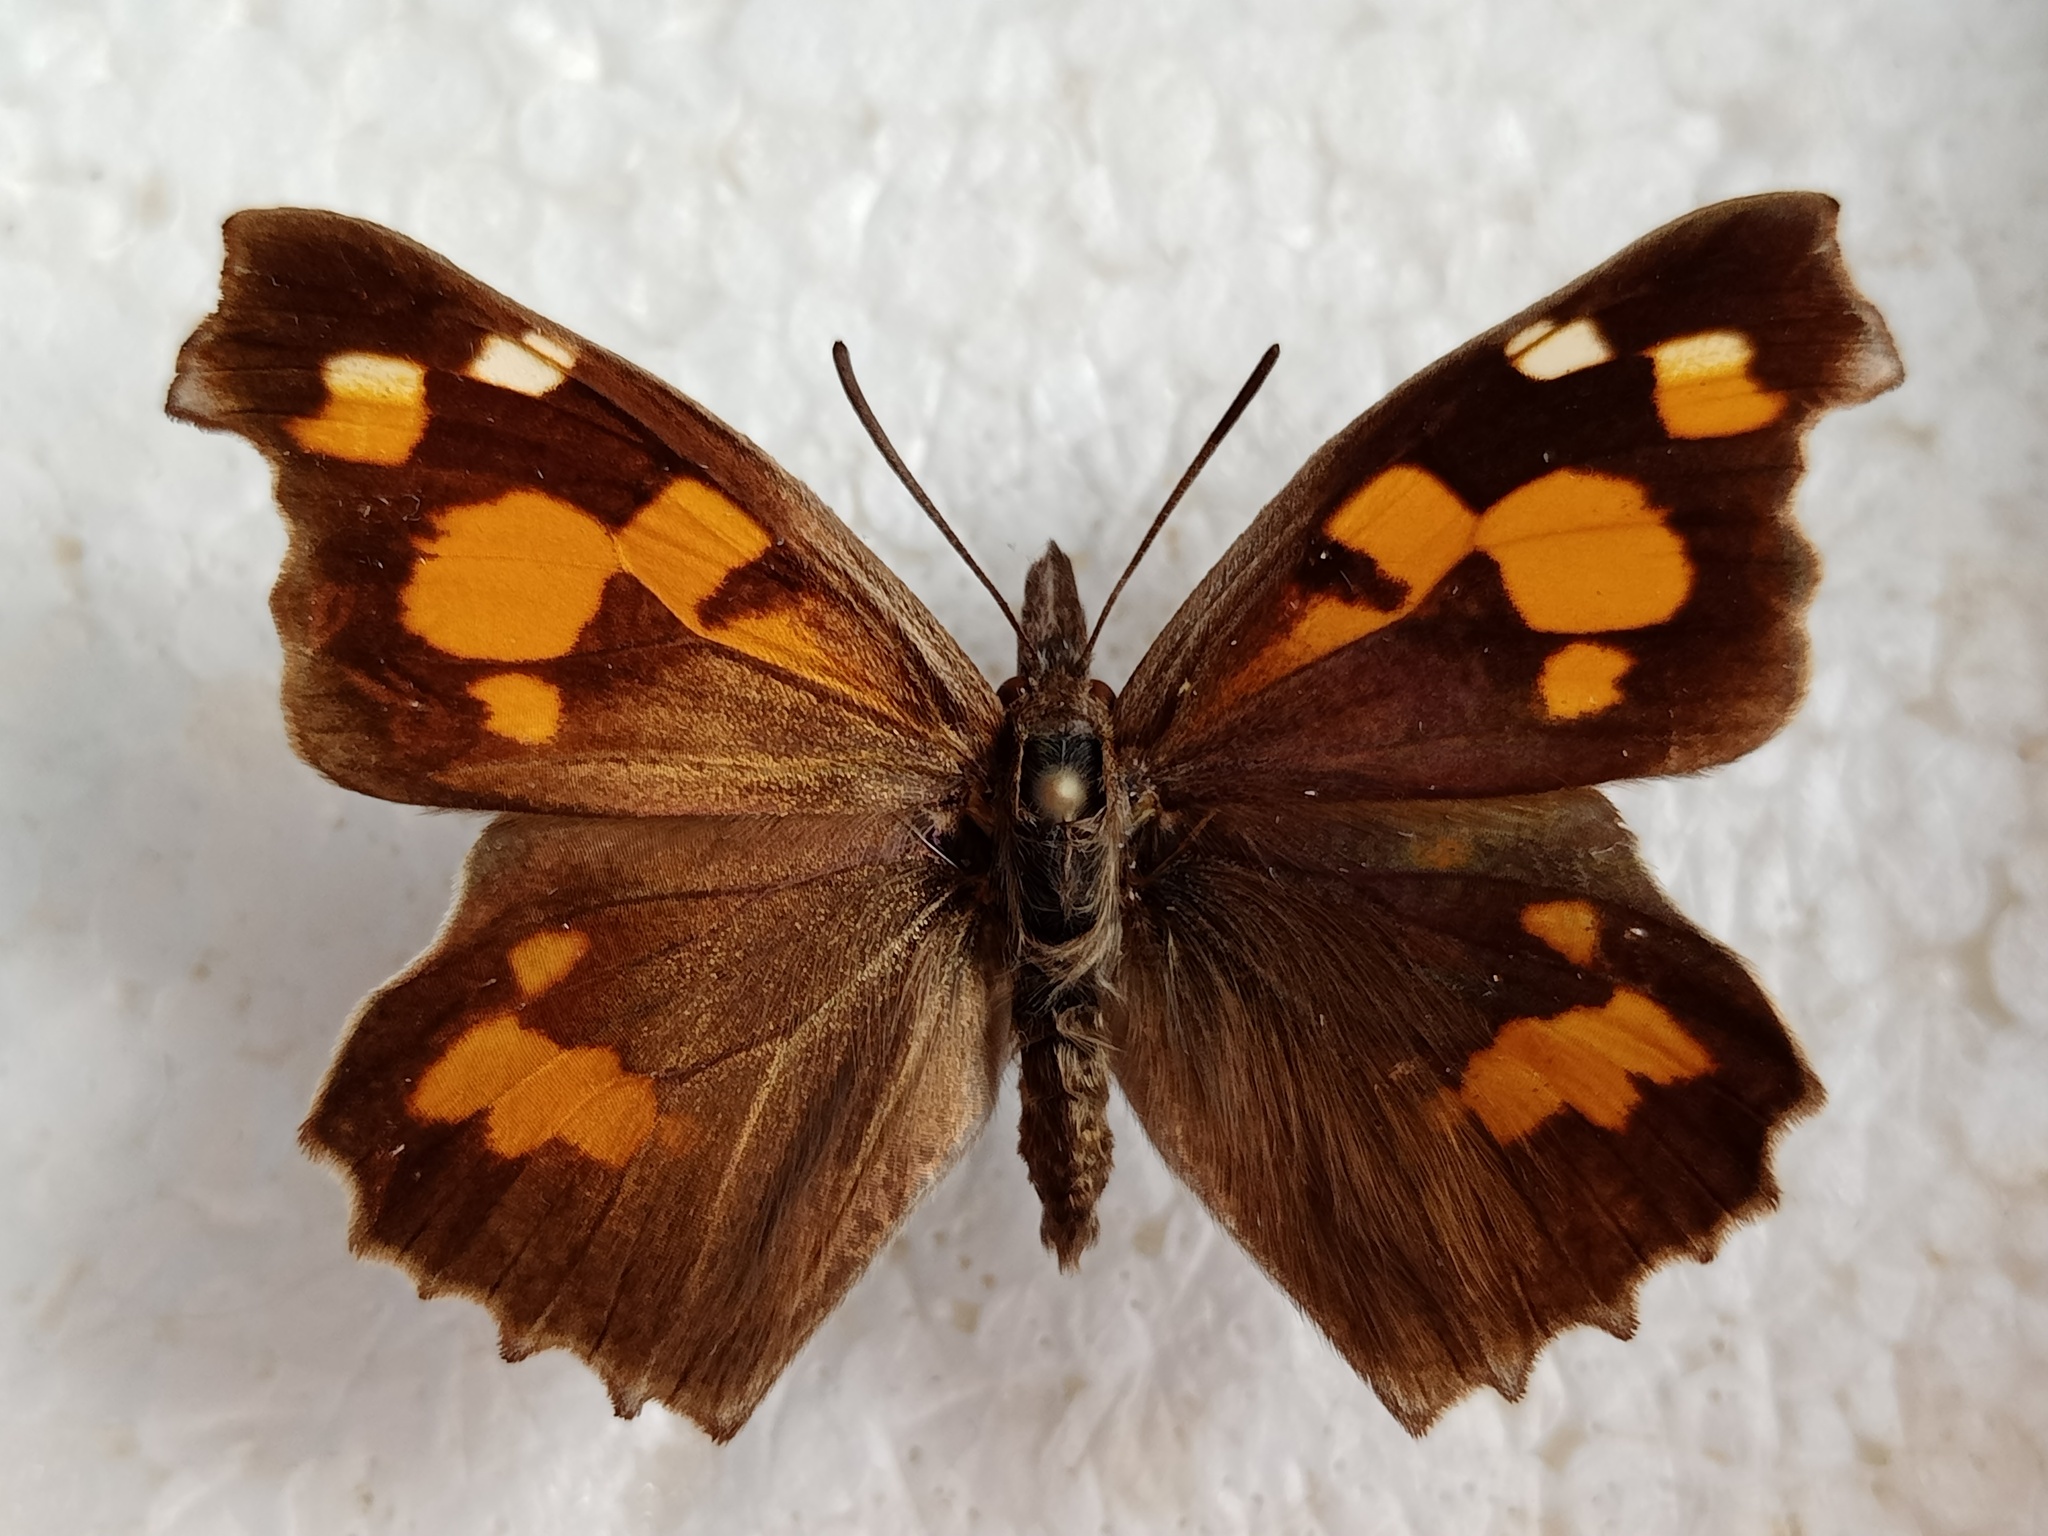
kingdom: Animalia
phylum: Arthropoda
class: Insecta
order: Lepidoptera
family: Nymphalidae
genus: Libythea
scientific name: Libythea celtis
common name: Nettle-tree butterfly
